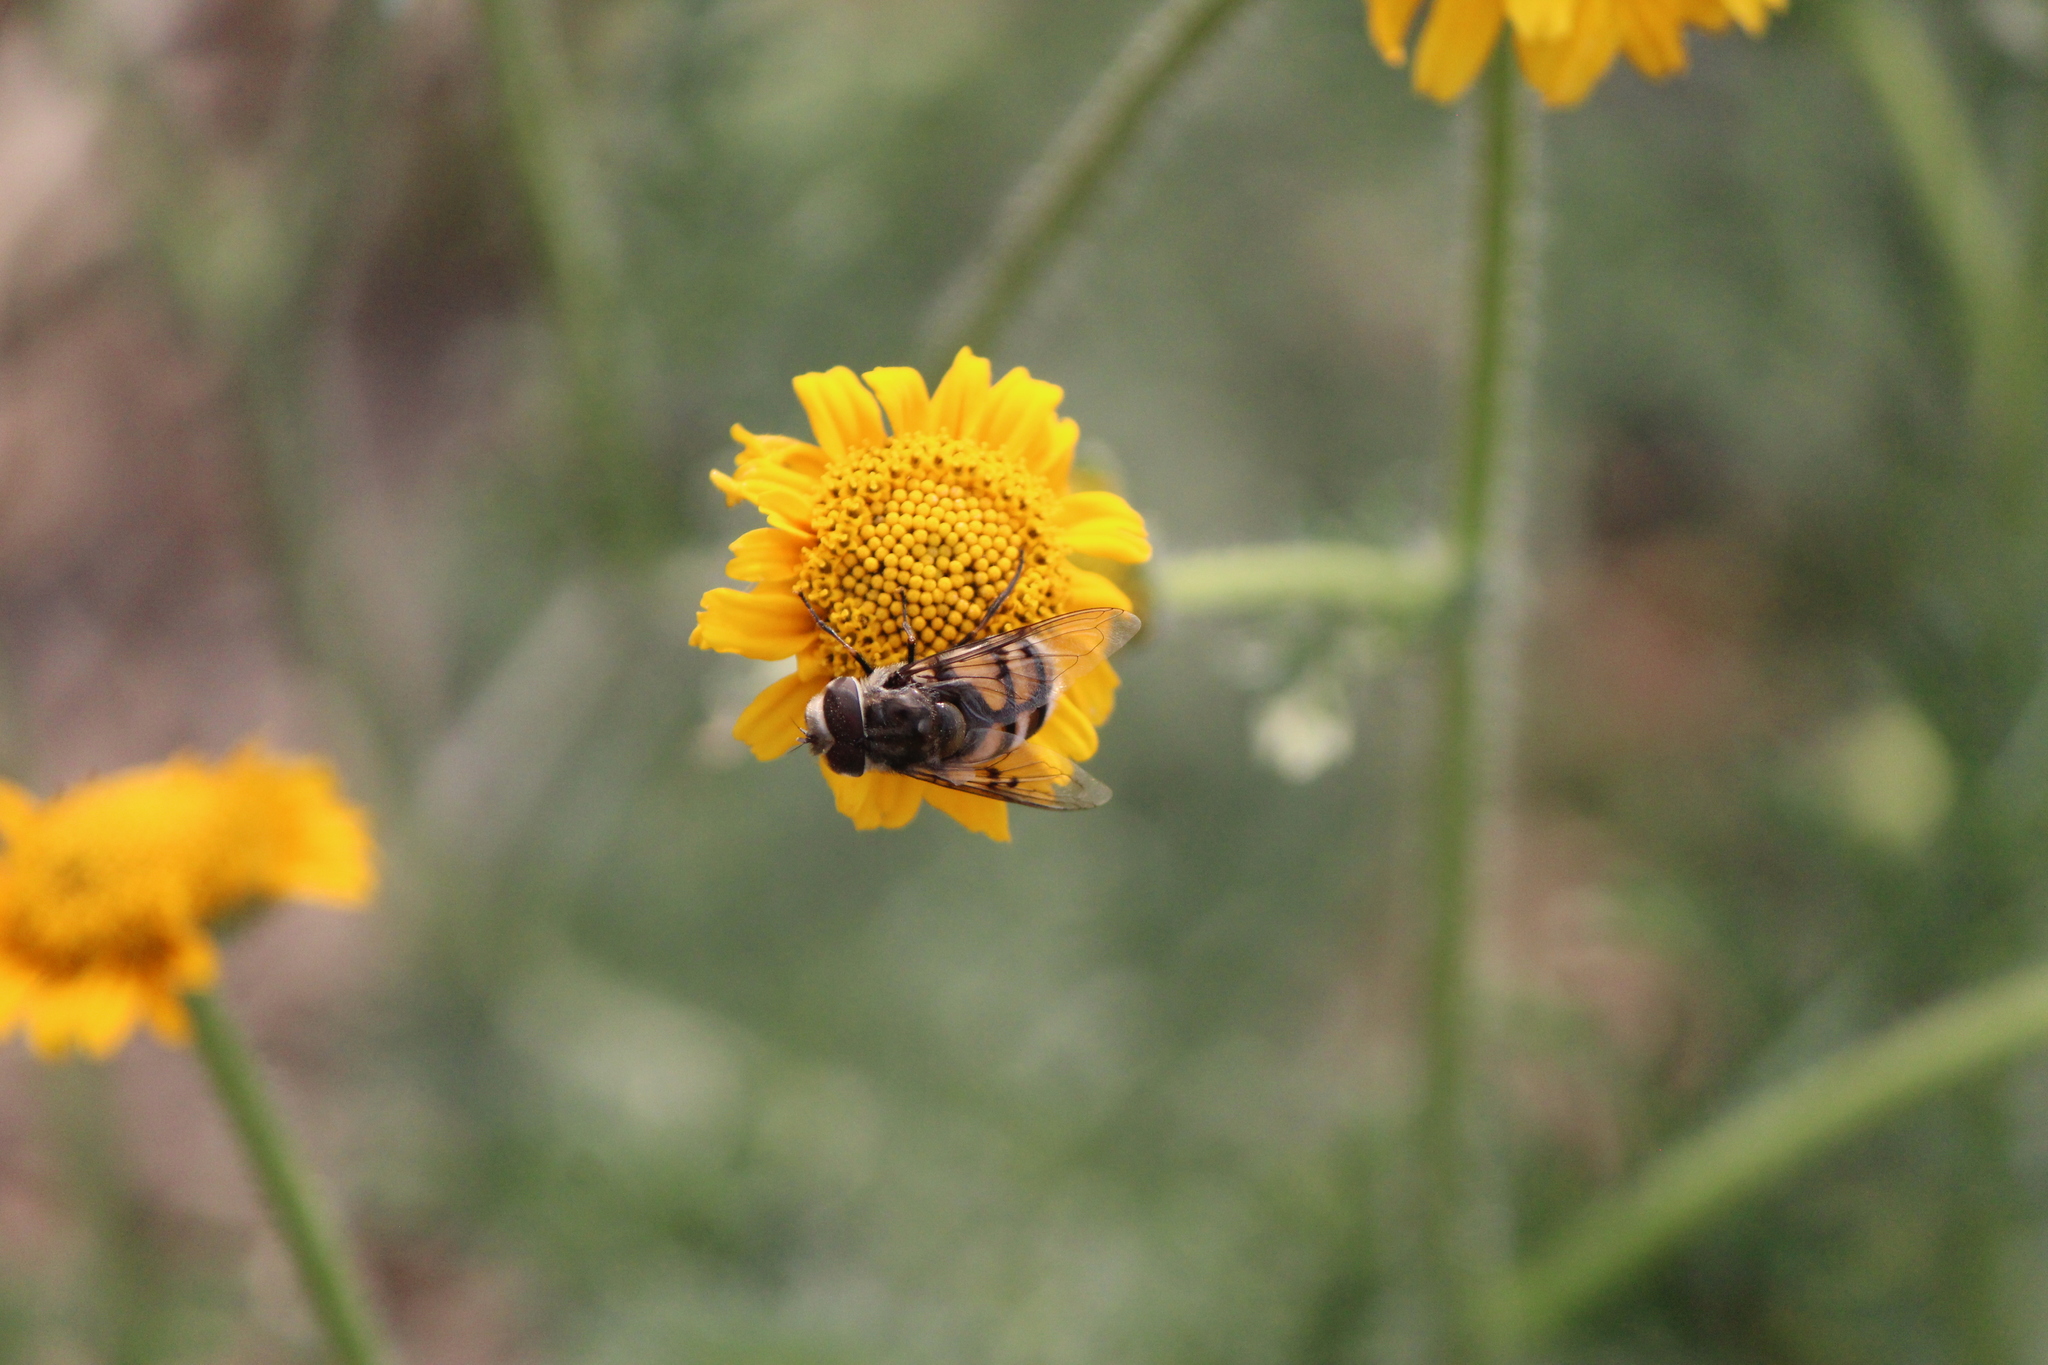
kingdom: Animalia
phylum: Arthropoda
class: Insecta
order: Diptera
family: Syrphidae
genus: Copestylum
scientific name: Copestylum avidum
